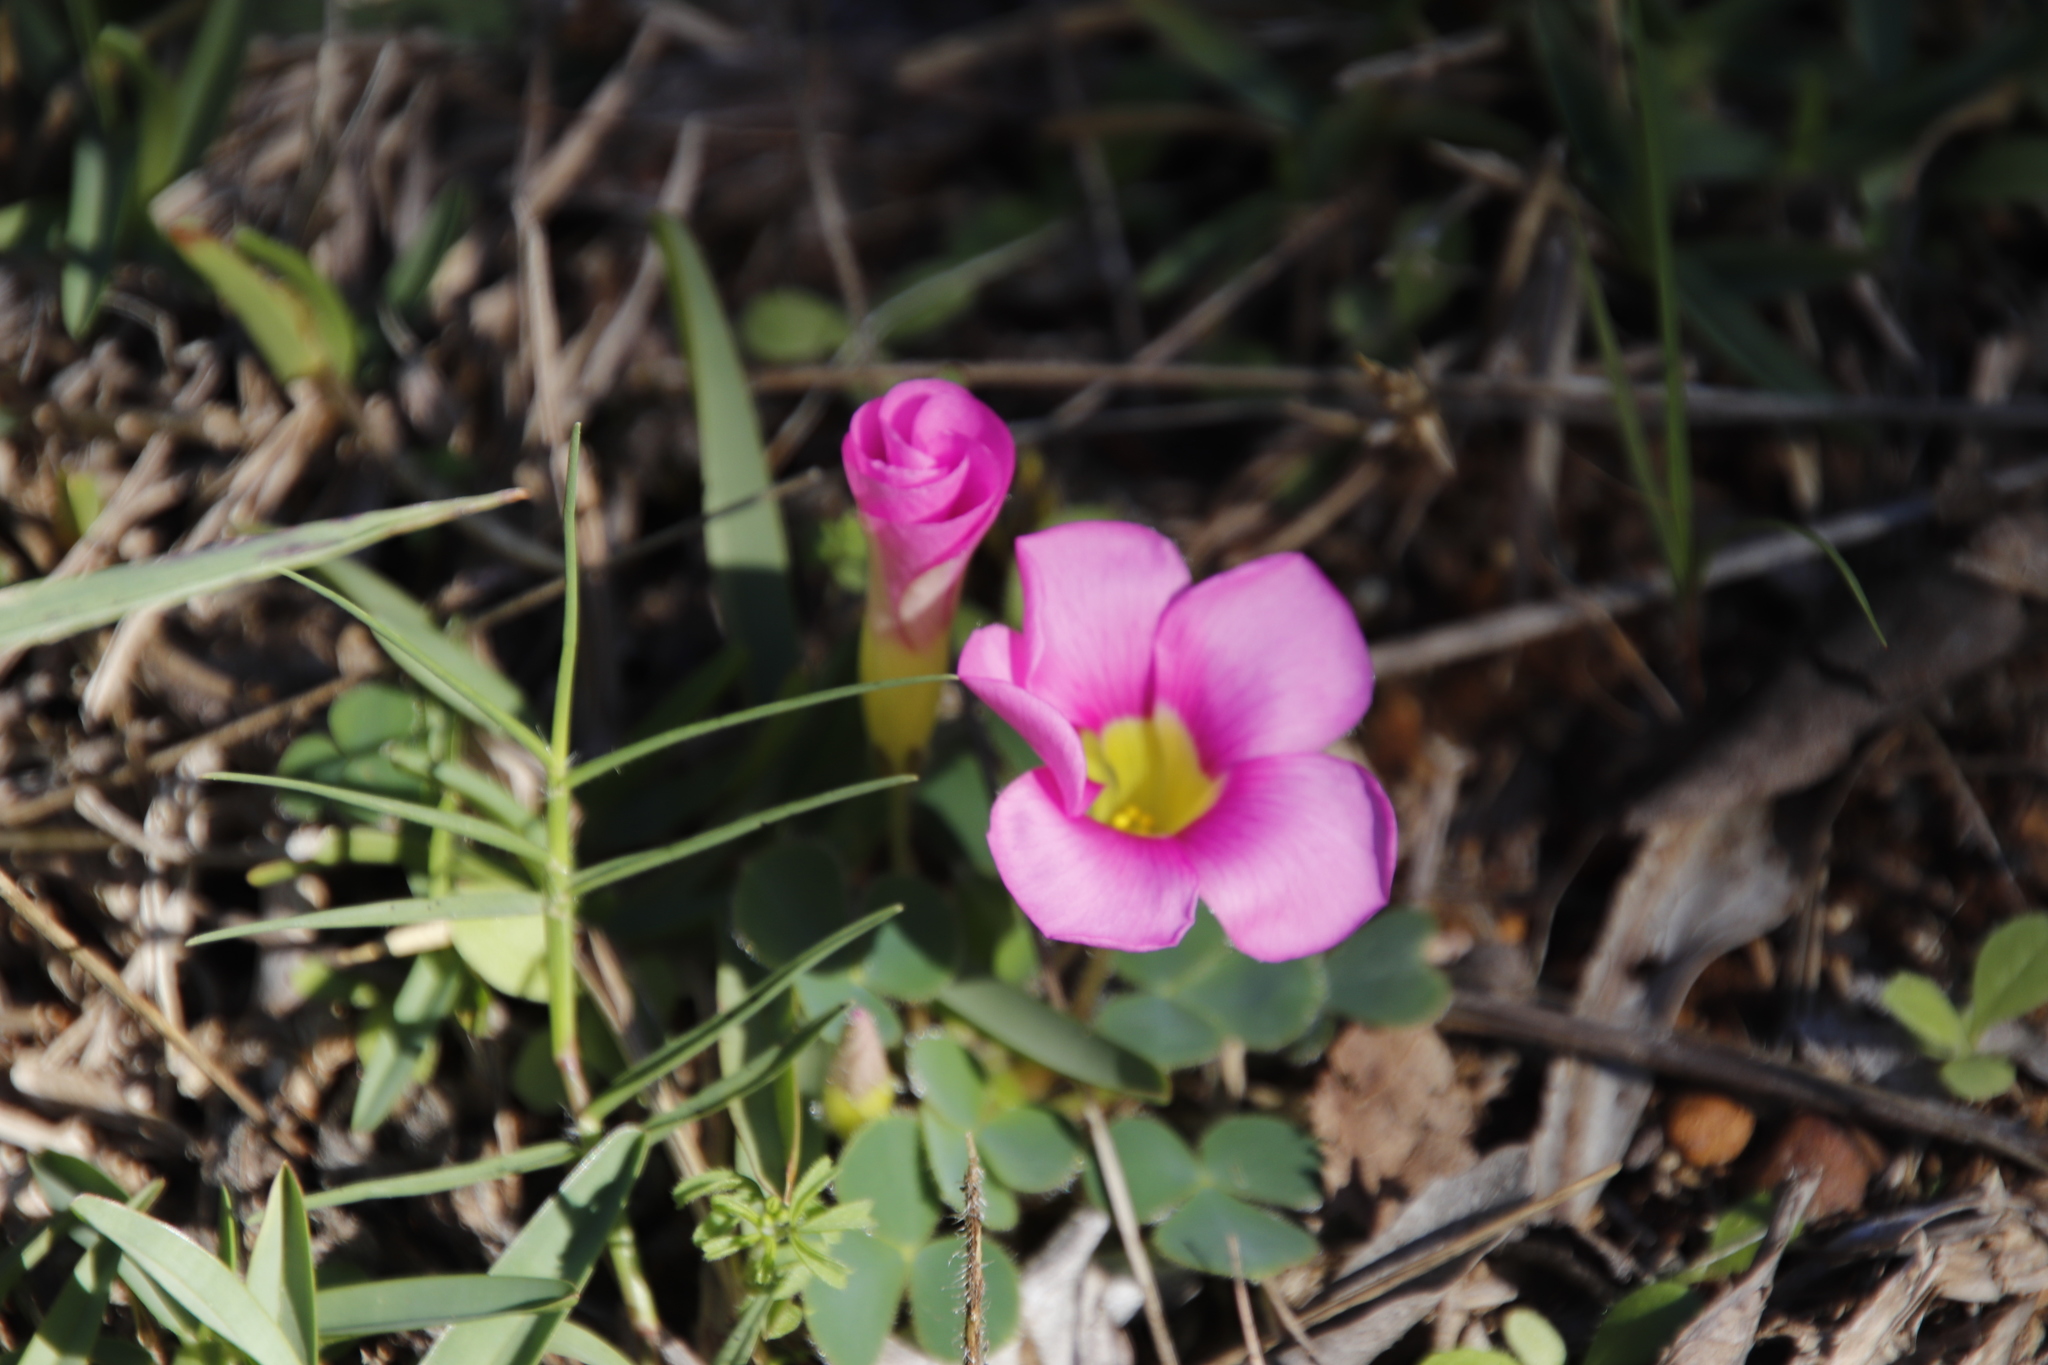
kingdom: Plantae
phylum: Tracheophyta
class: Magnoliopsida
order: Oxalidales
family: Oxalidaceae
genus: Oxalis
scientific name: Oxalis purpurea
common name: Purple woodsorrel
